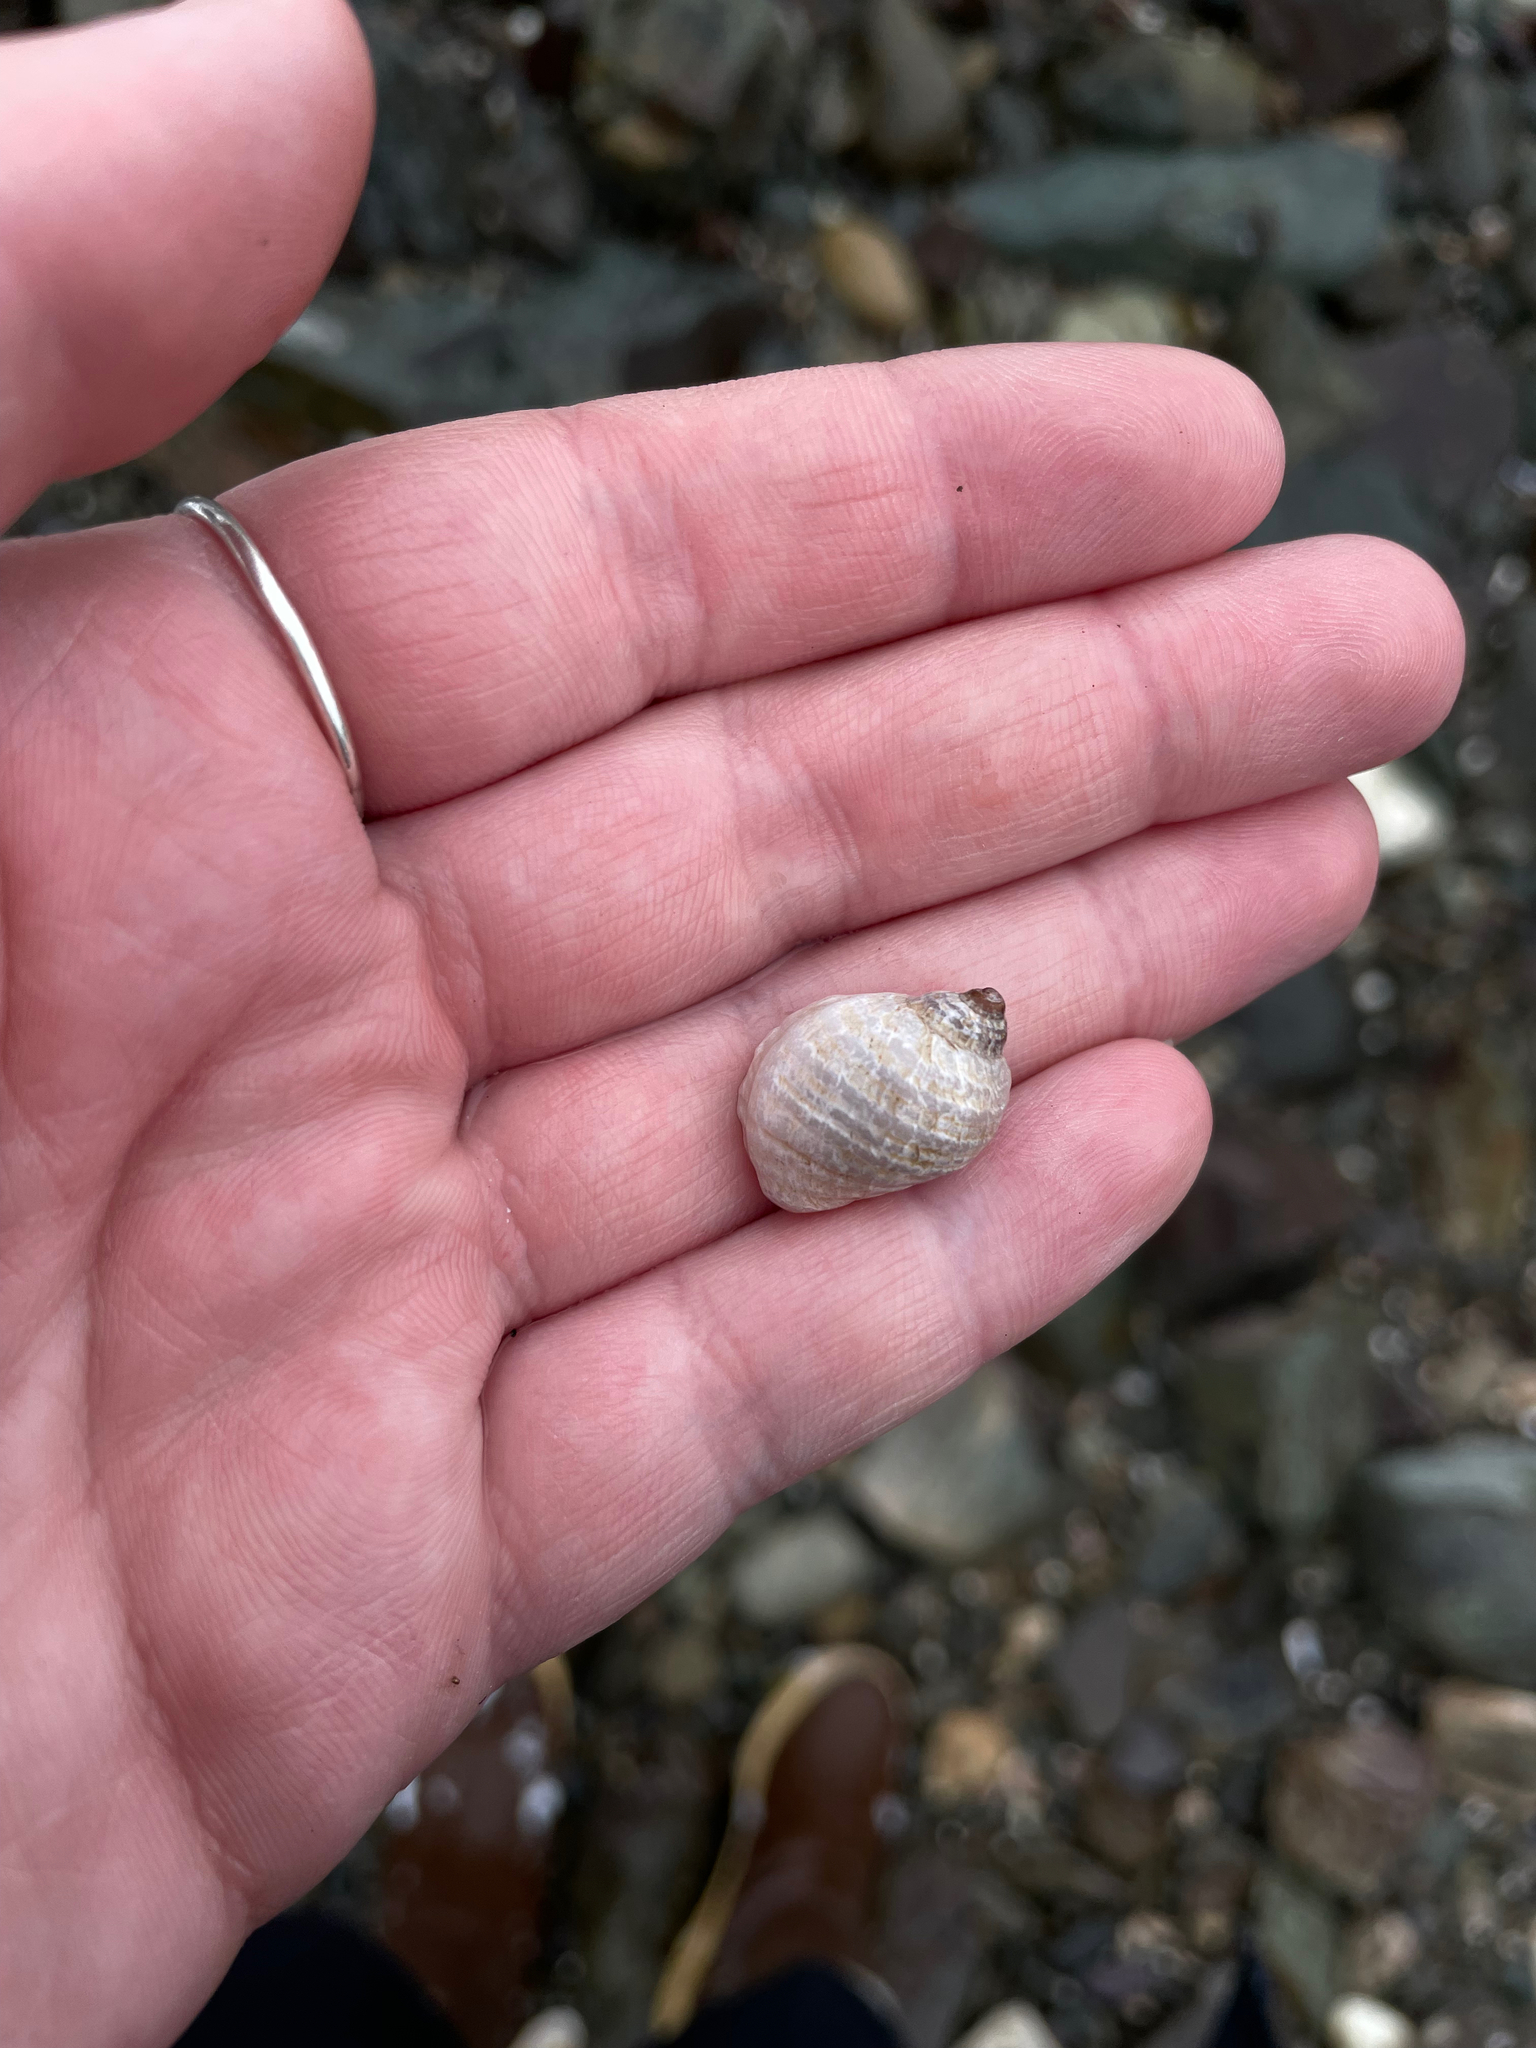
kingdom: Animalia
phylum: Mollusca
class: Gastropoda
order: Neogastropoda
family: Muricidae
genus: Nucella
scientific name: Nucella lapillus
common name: Dog whelk
